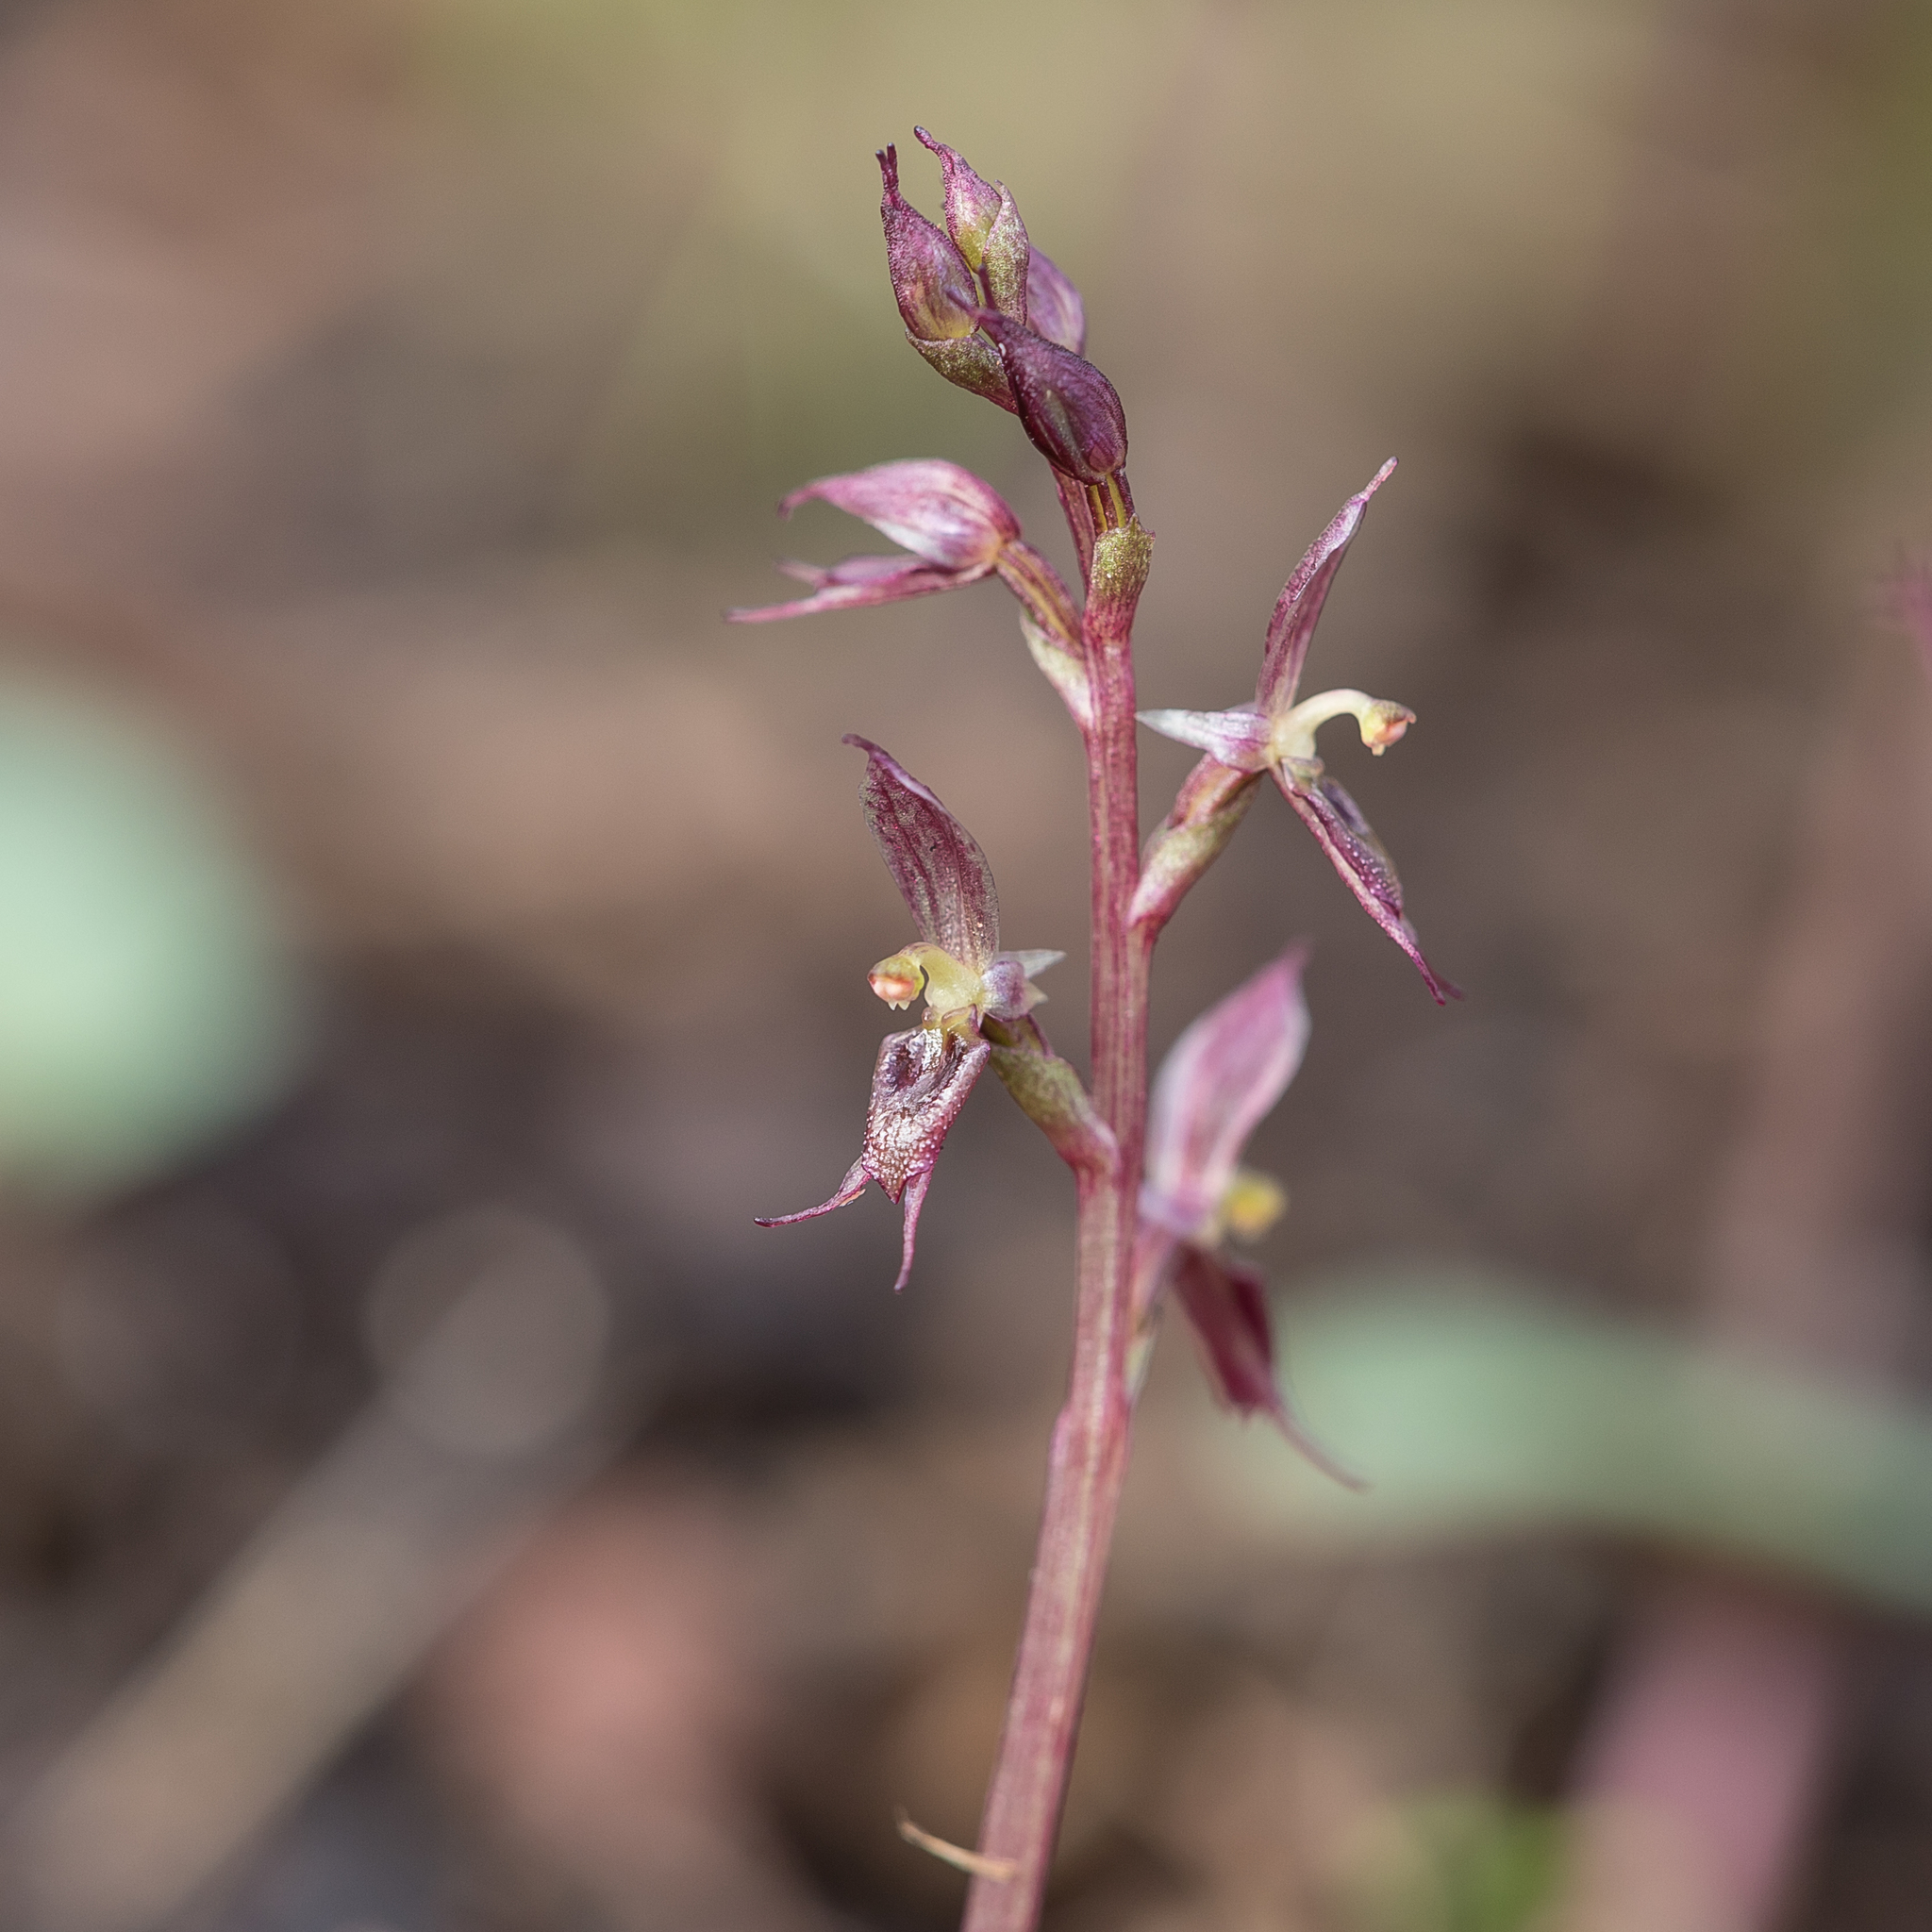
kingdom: Plantae
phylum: Tracheophyta
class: Liliopsida
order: Asparagales
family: Orchidaceae
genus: Acianthus
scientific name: Acianthus pusillus
